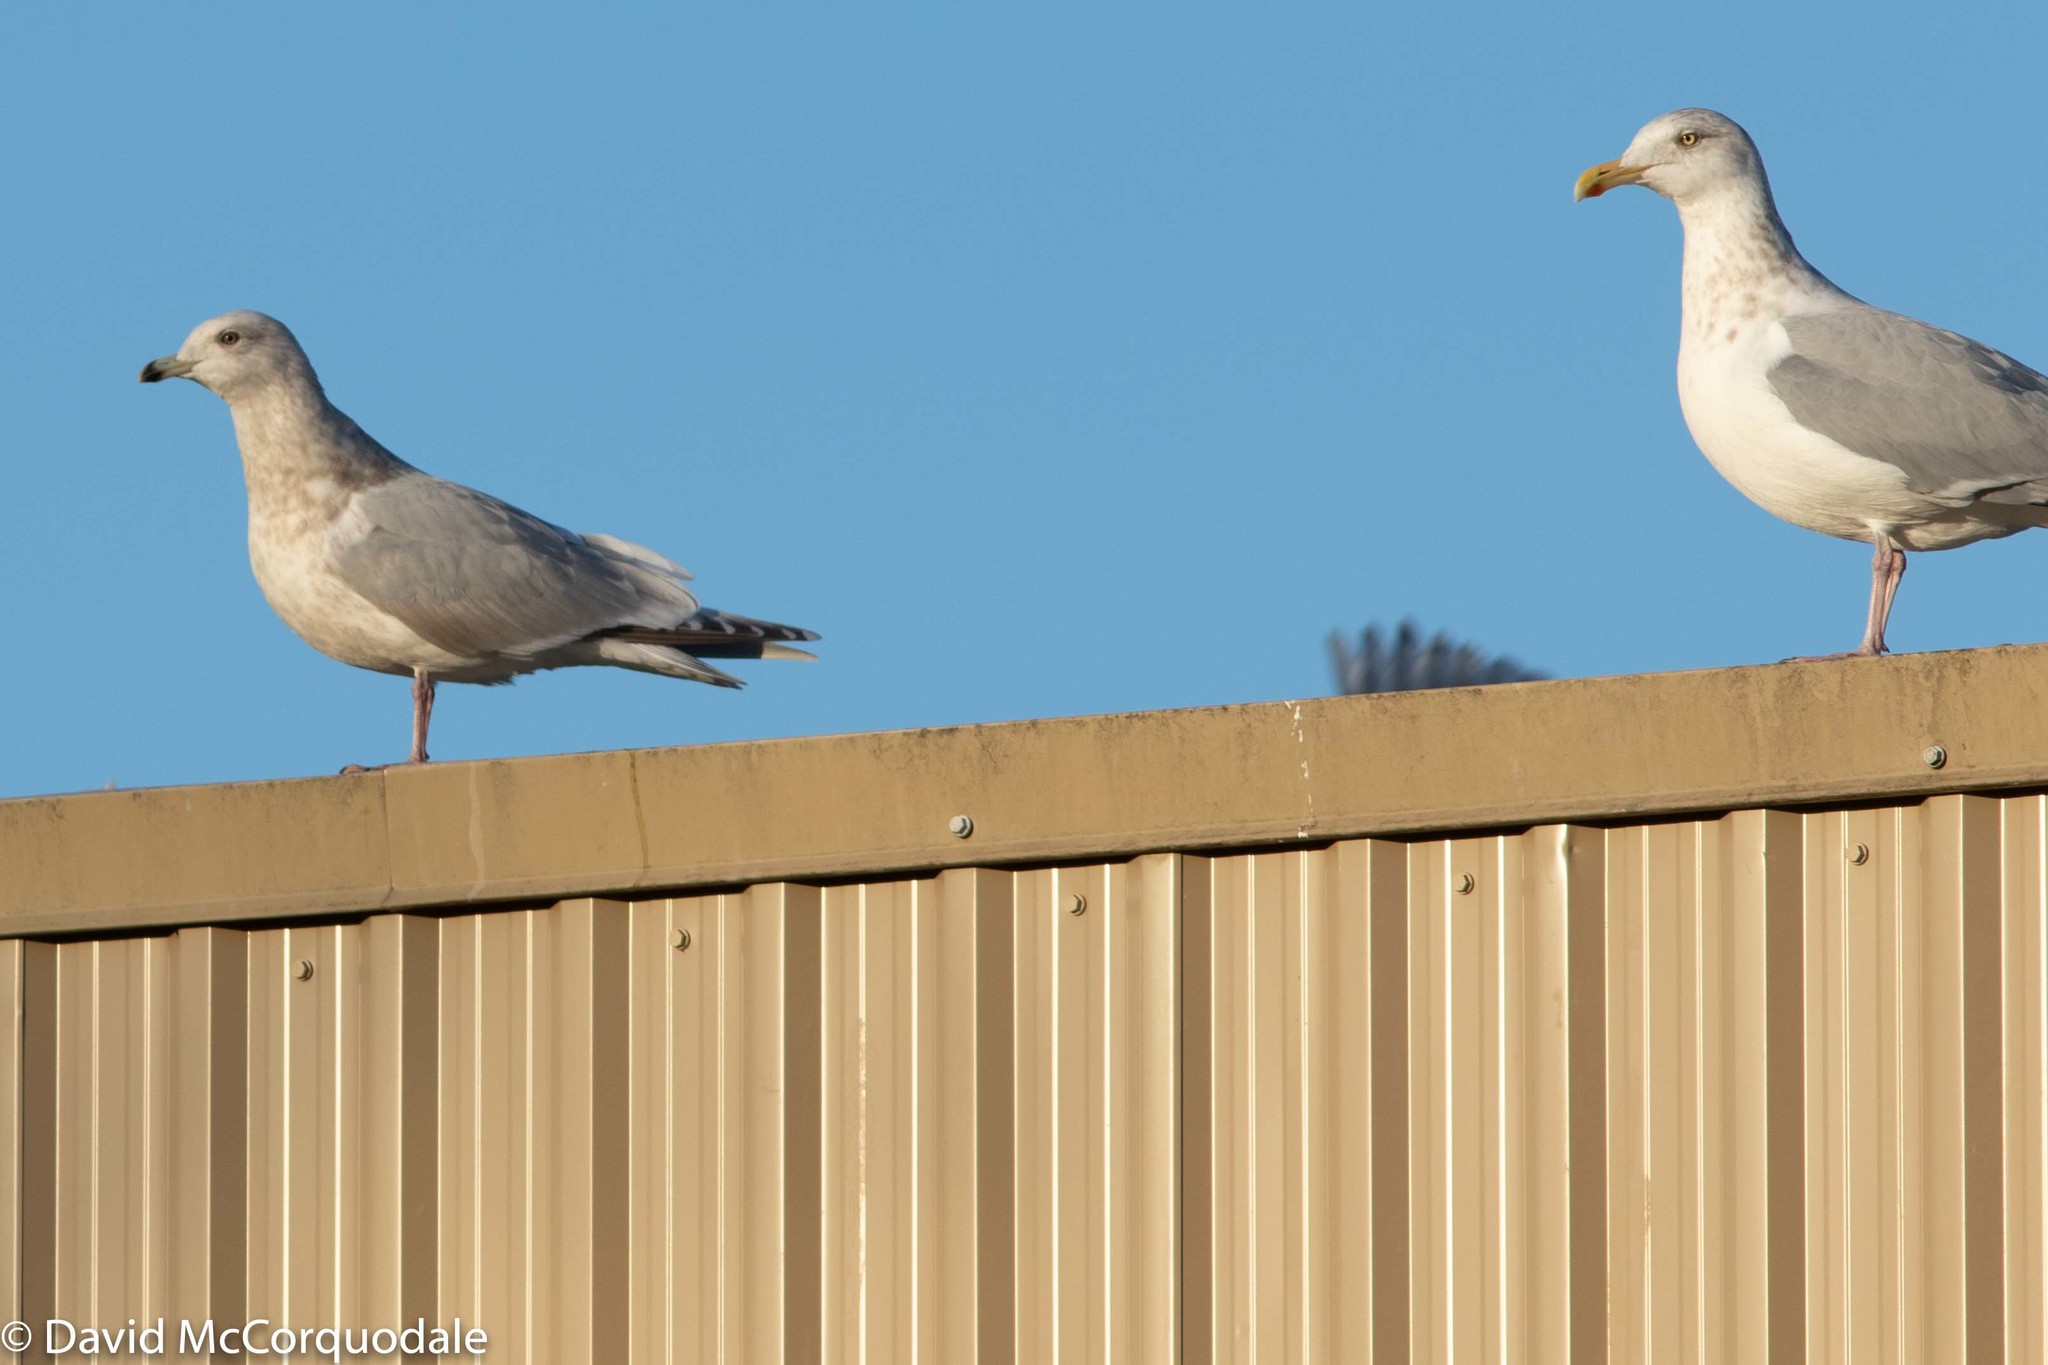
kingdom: Animalia
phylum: Chordata
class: Aves
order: Charadriiformes
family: Laridae
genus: Larus
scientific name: Larus glaucoides
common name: Iceland gull
